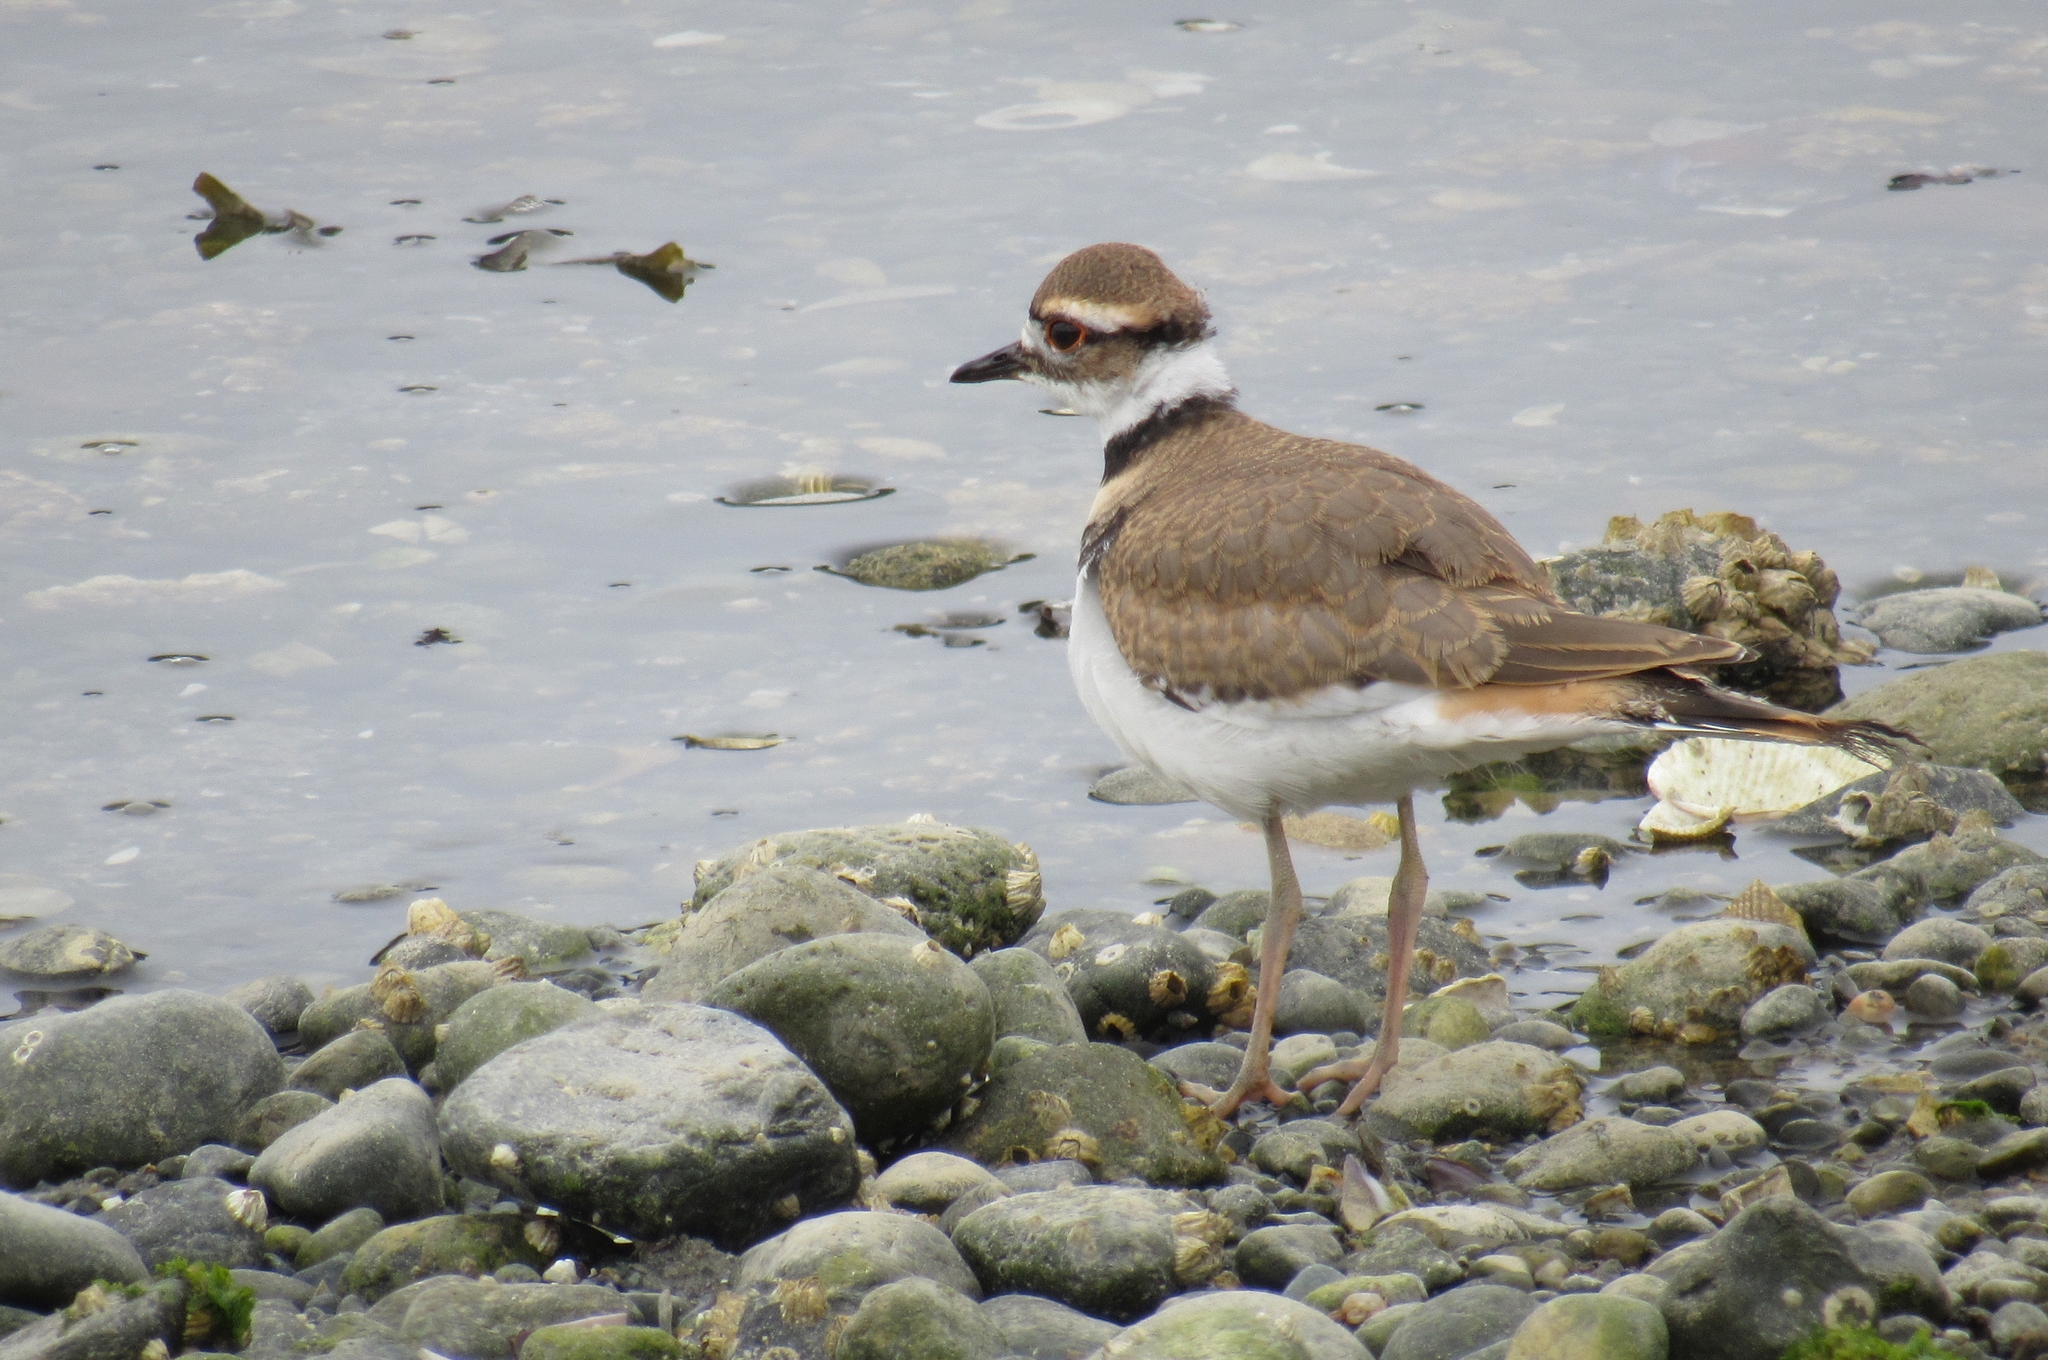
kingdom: Animalia
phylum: Chordata
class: Aves
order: Charadriiformes
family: Charadriidae
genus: Charadrius
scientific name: Charadrius vociferus
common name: Killdeer
